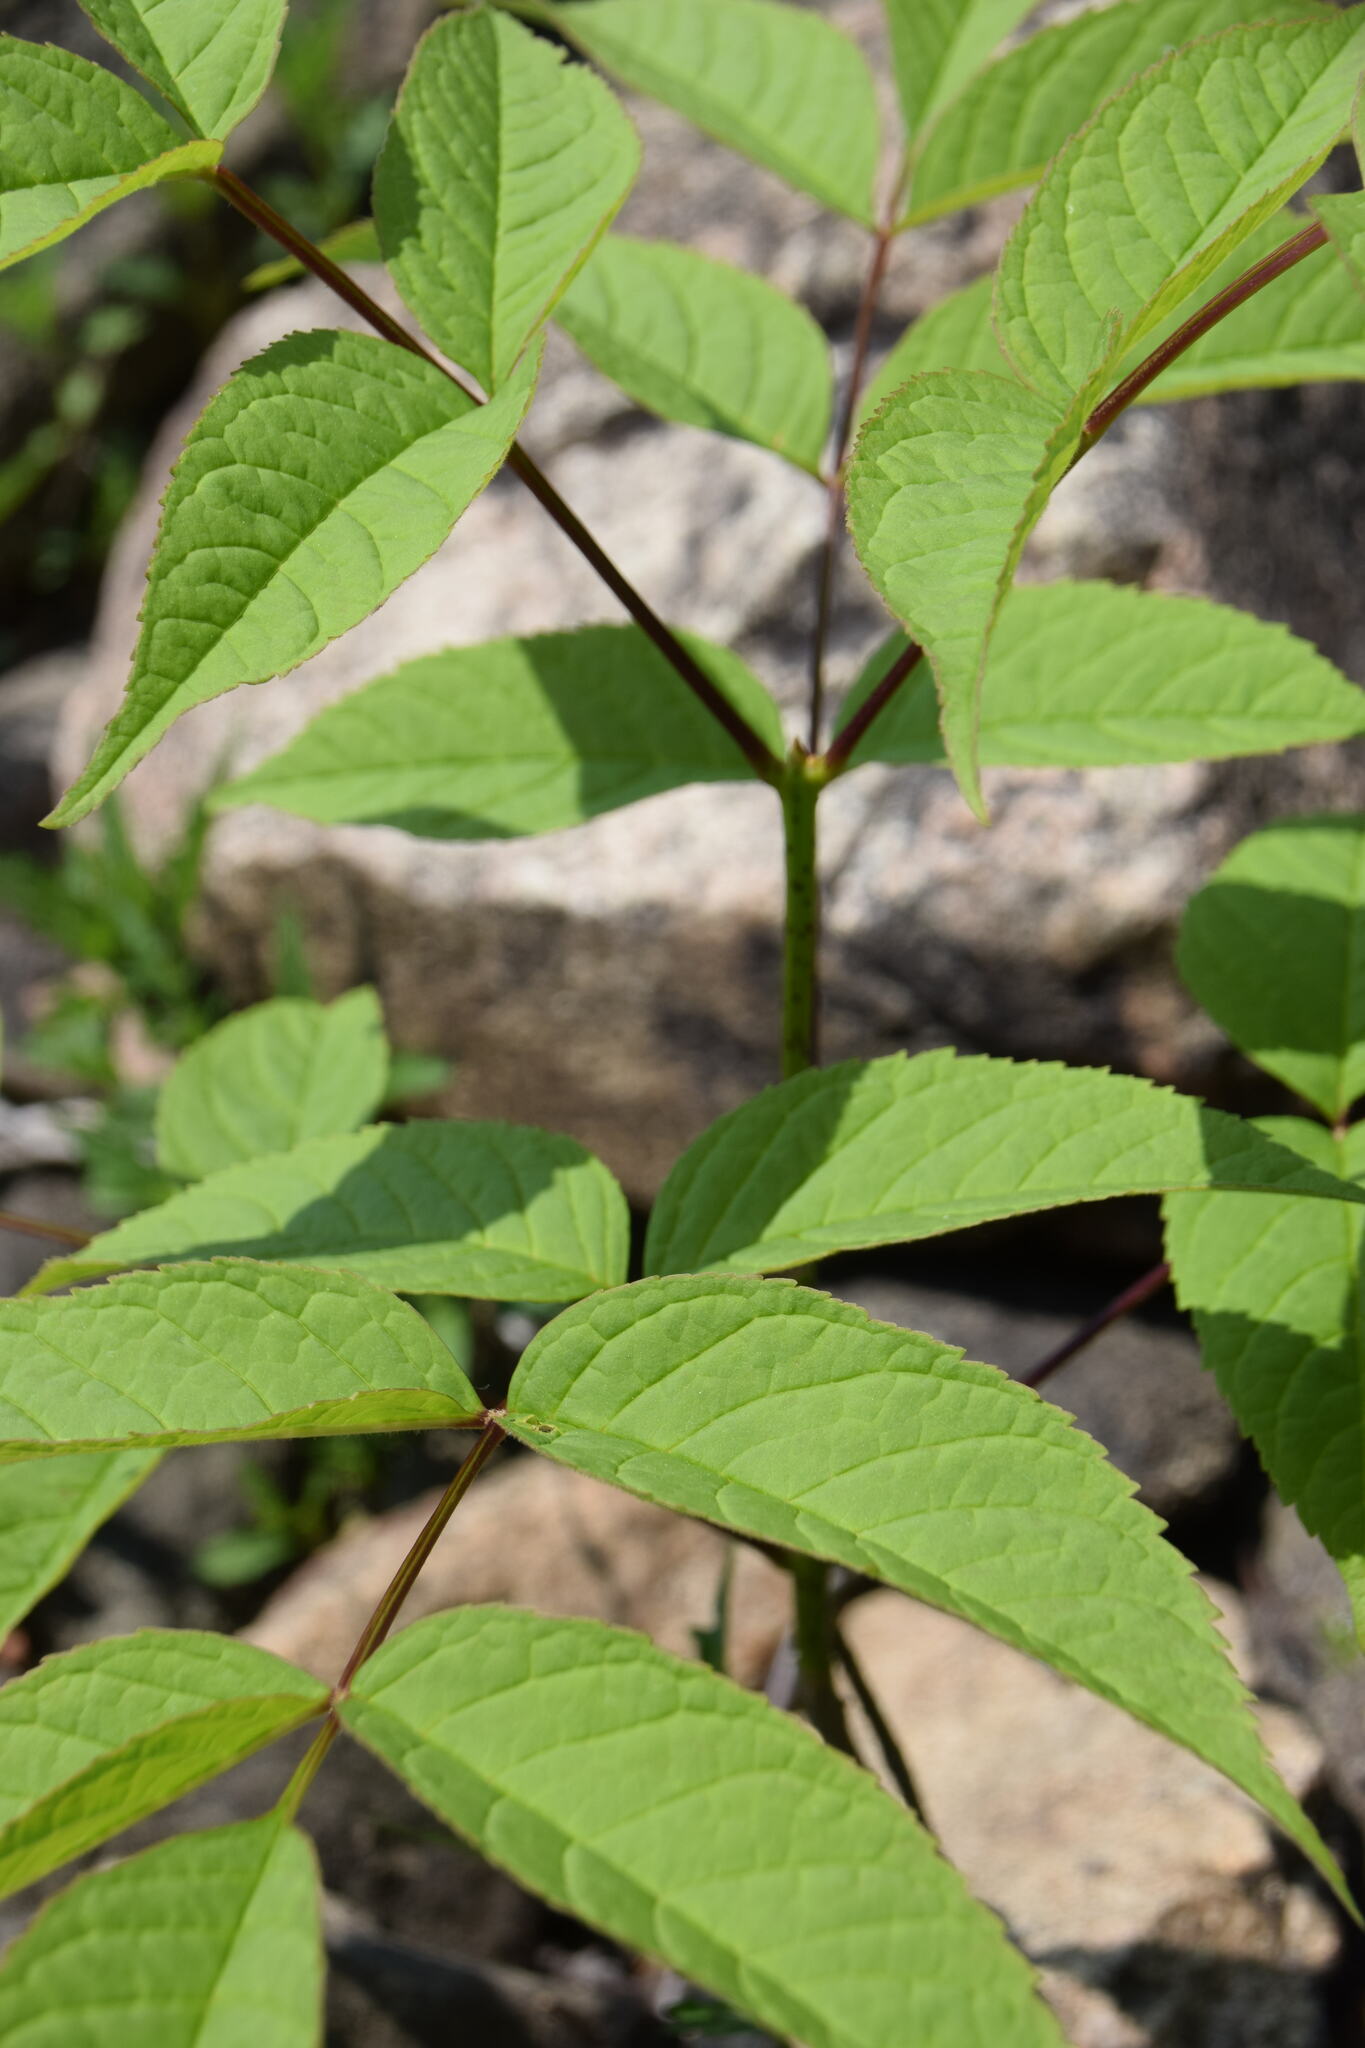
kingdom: Plantae
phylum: Tracheophyta
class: Magnoliopsida
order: Lamiales
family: Oleaceae
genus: Fraxinus
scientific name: Fraxinus nigra
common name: Black ash
